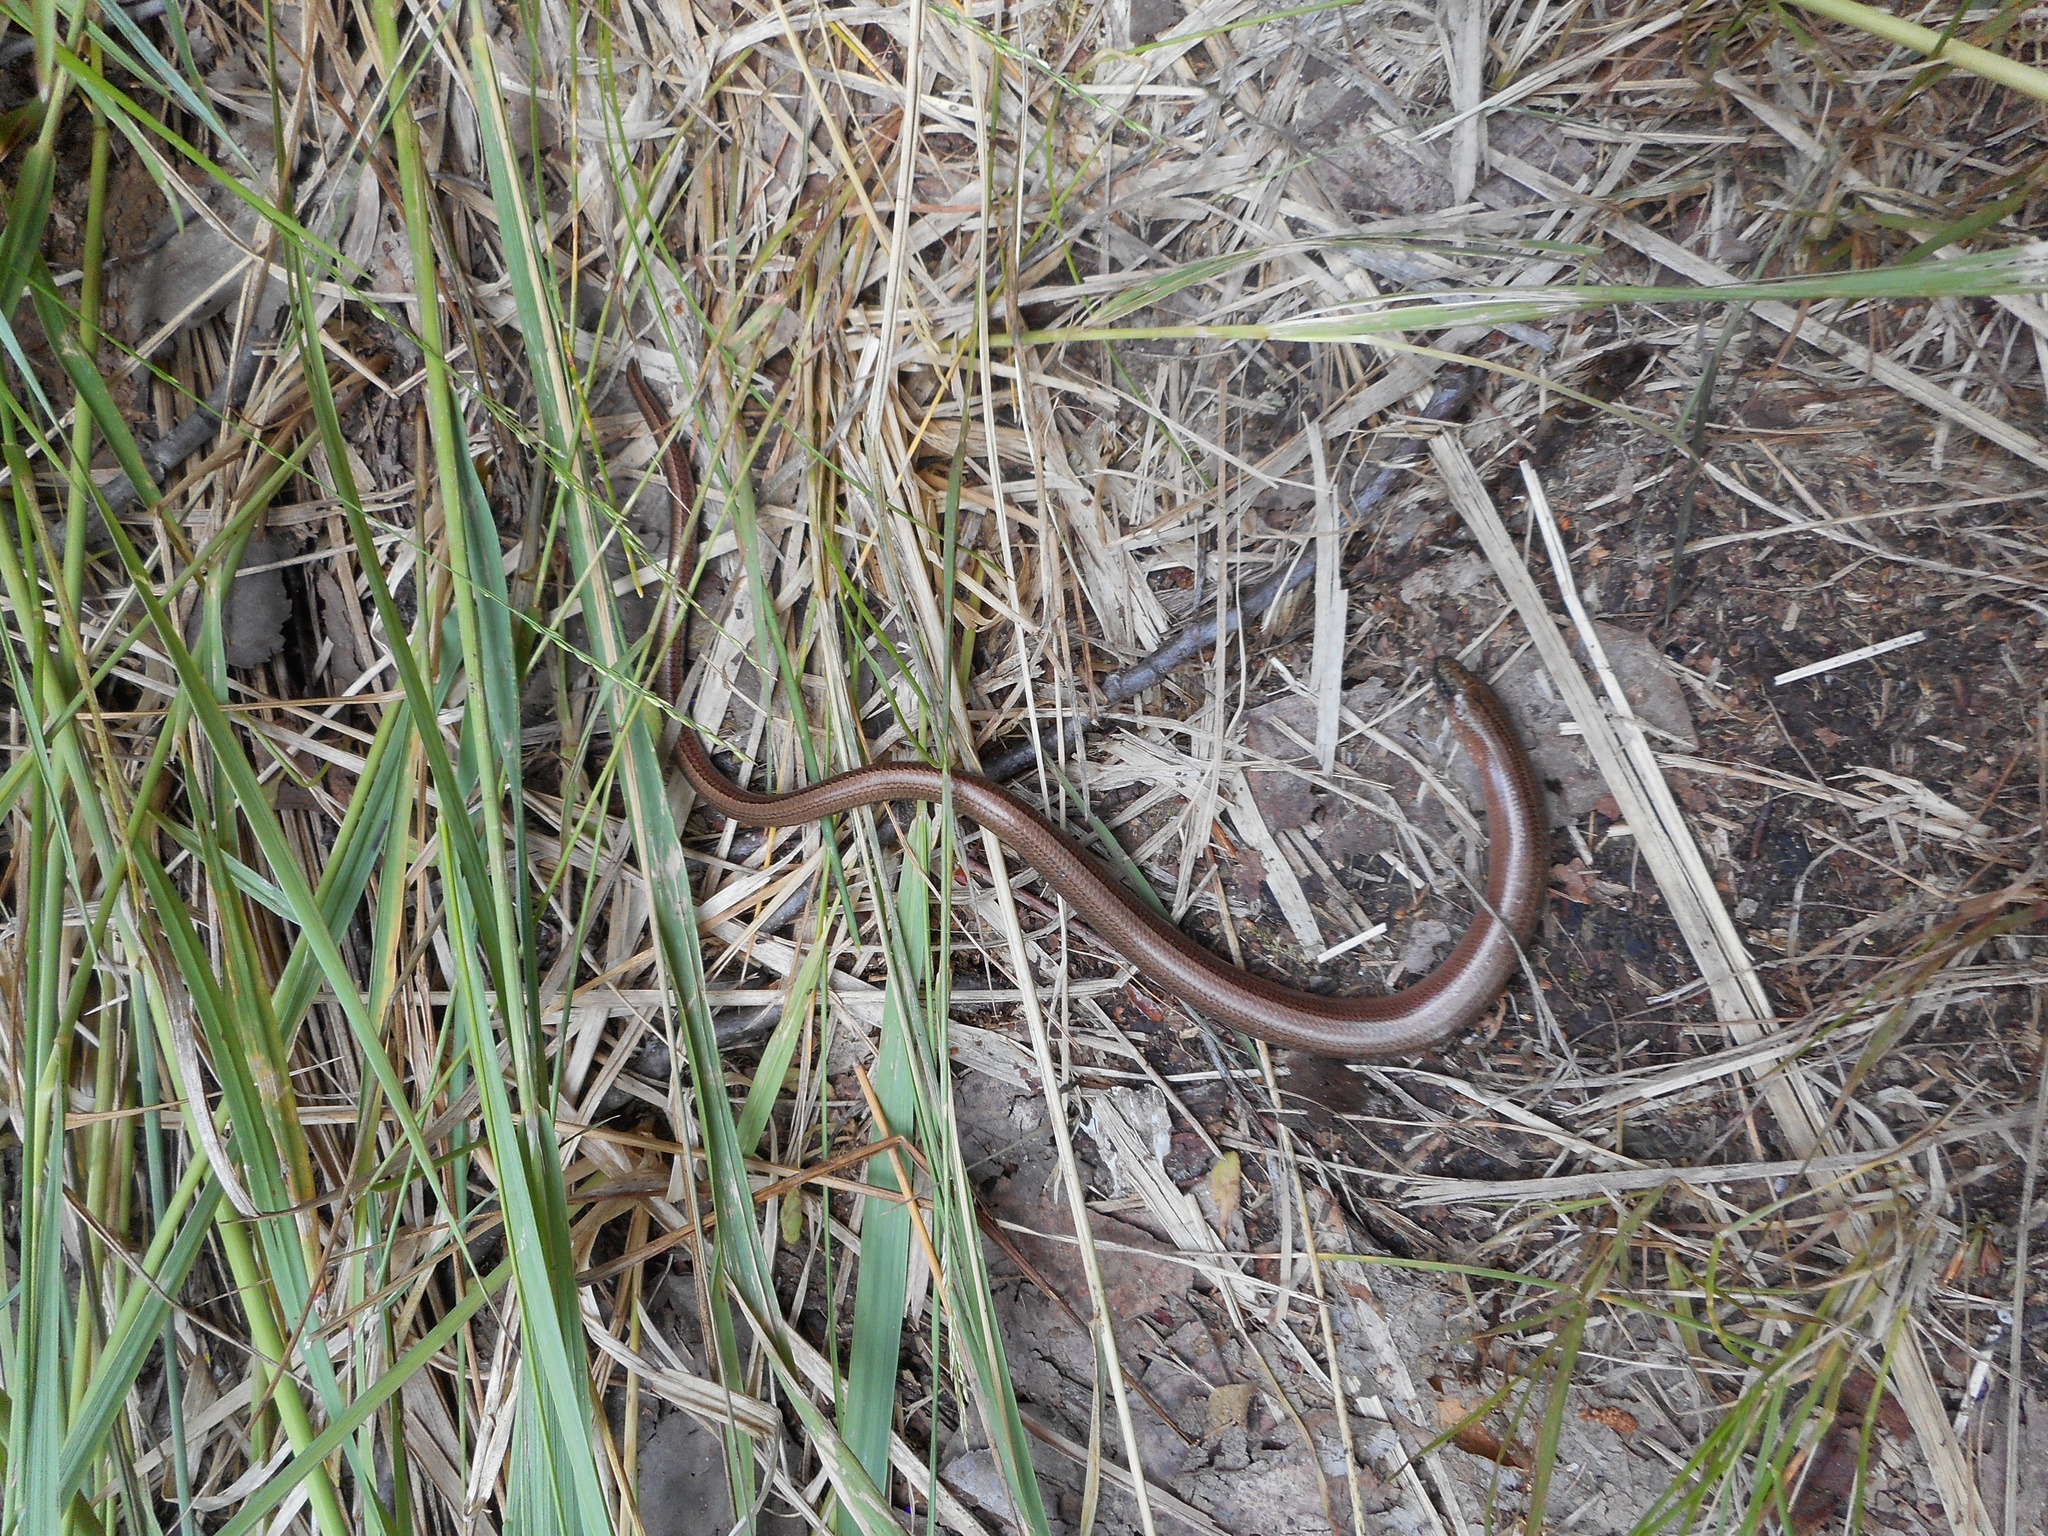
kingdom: Animalia
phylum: Chordata
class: Squamata
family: Anguidae
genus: Anguis
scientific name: Anguis colchica
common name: Slow worm
